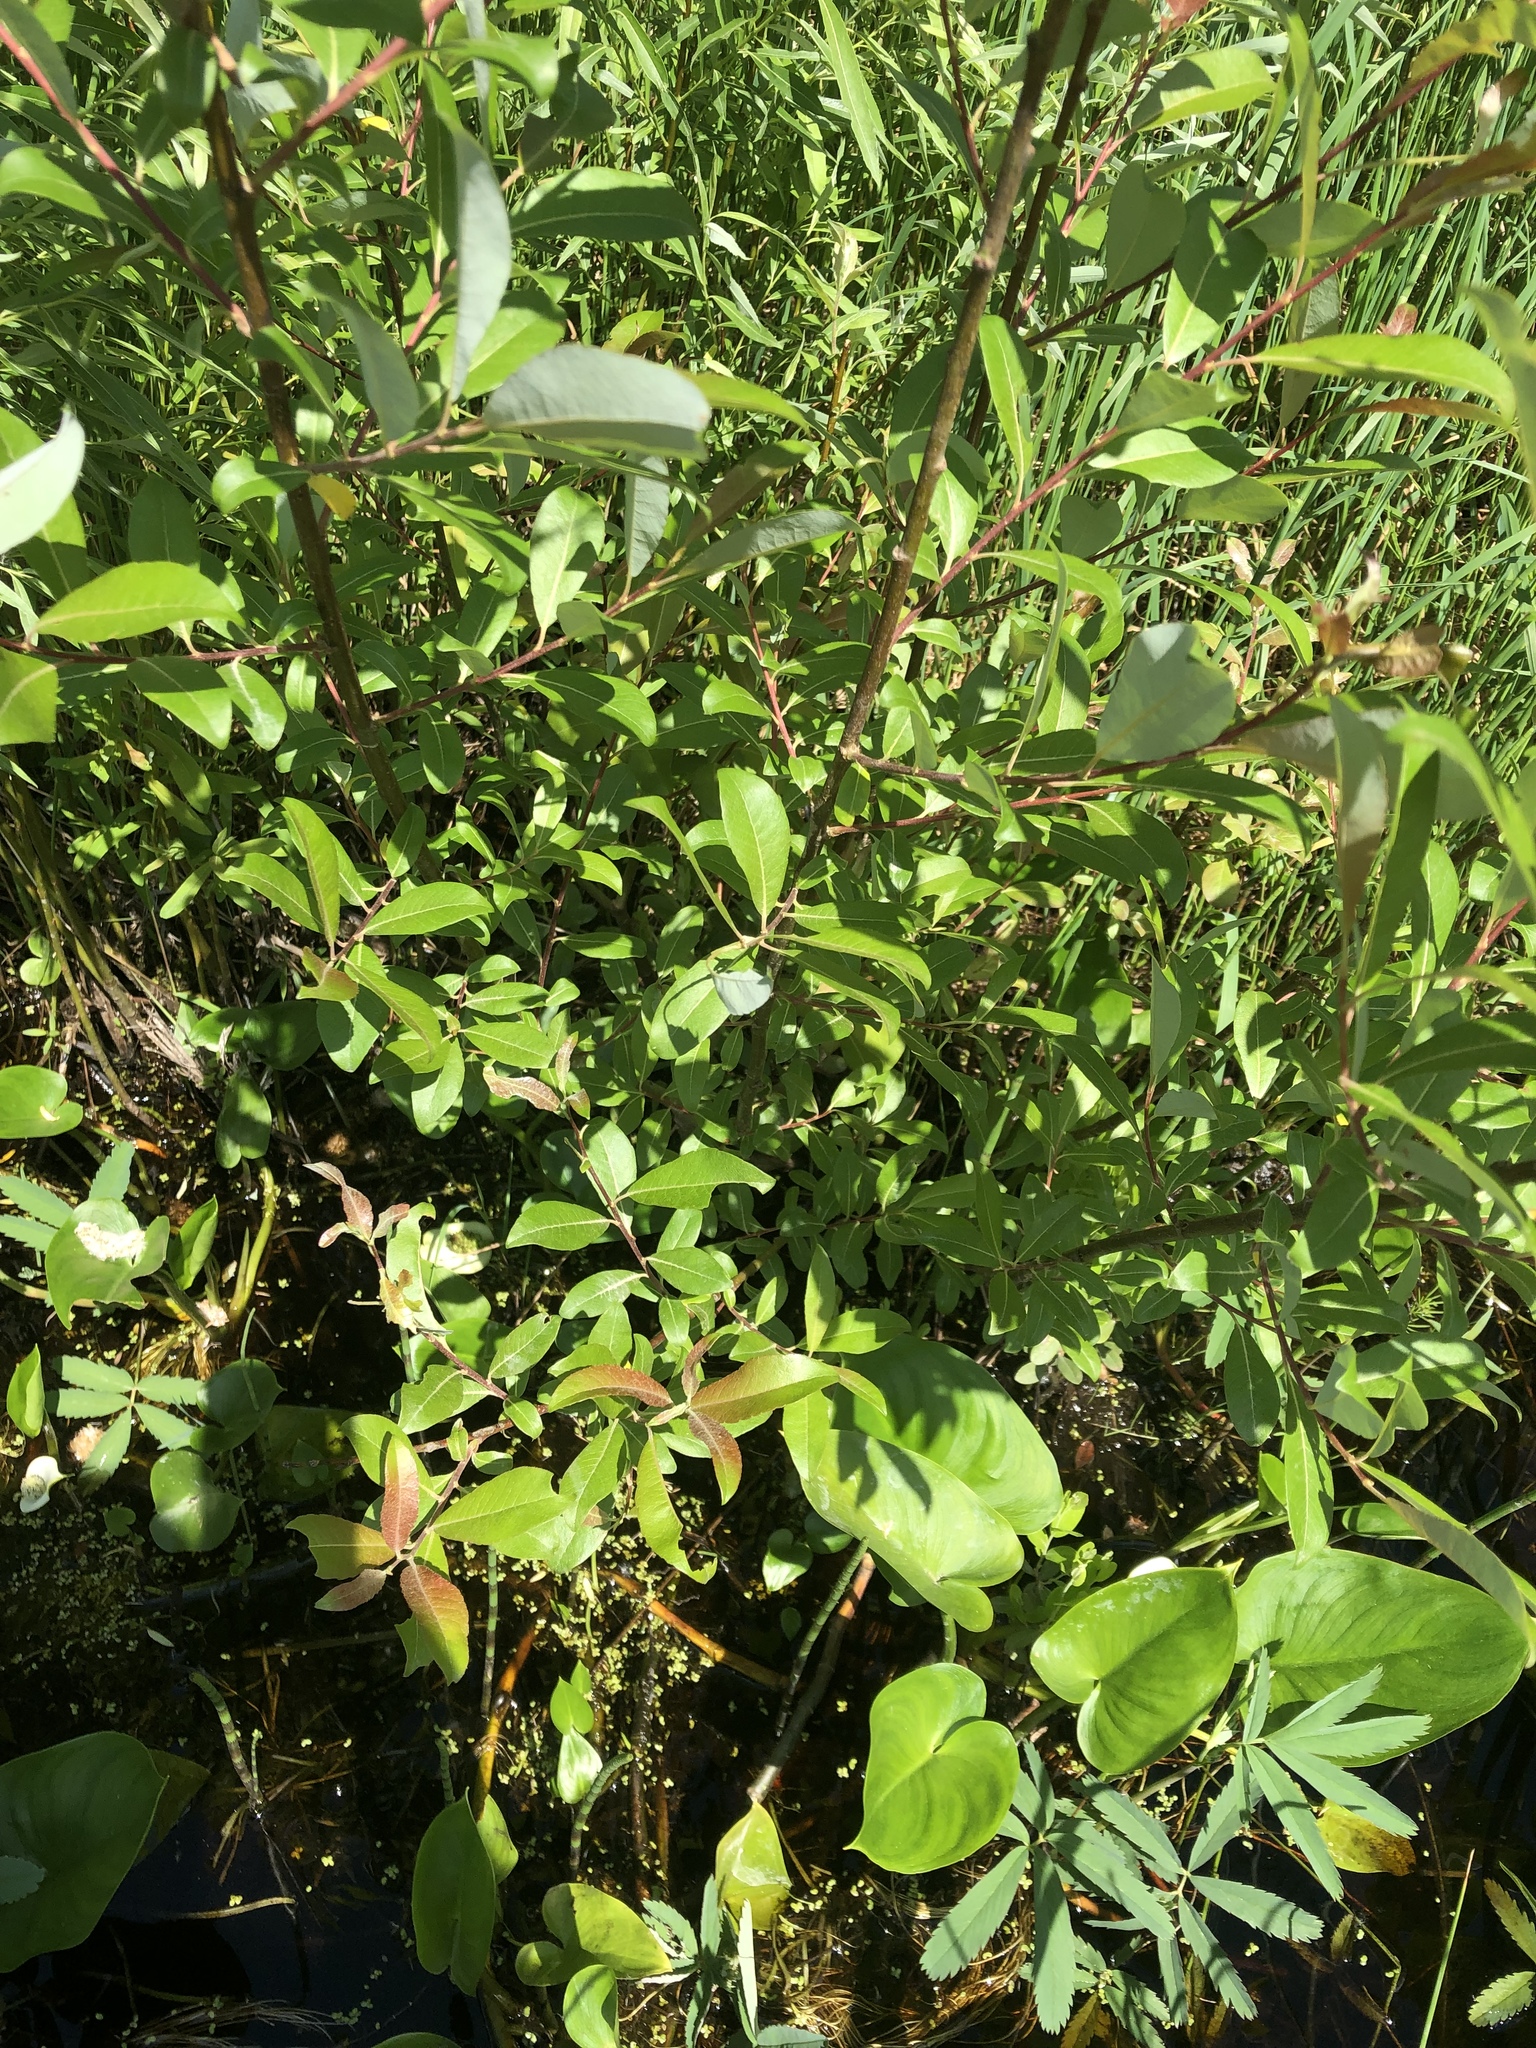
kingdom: Plantae
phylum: Tracheophyta
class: Magnoliopsida
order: Malpighiales
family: Salicaceae
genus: Salix
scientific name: Salix discolor
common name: Glaucous willow
